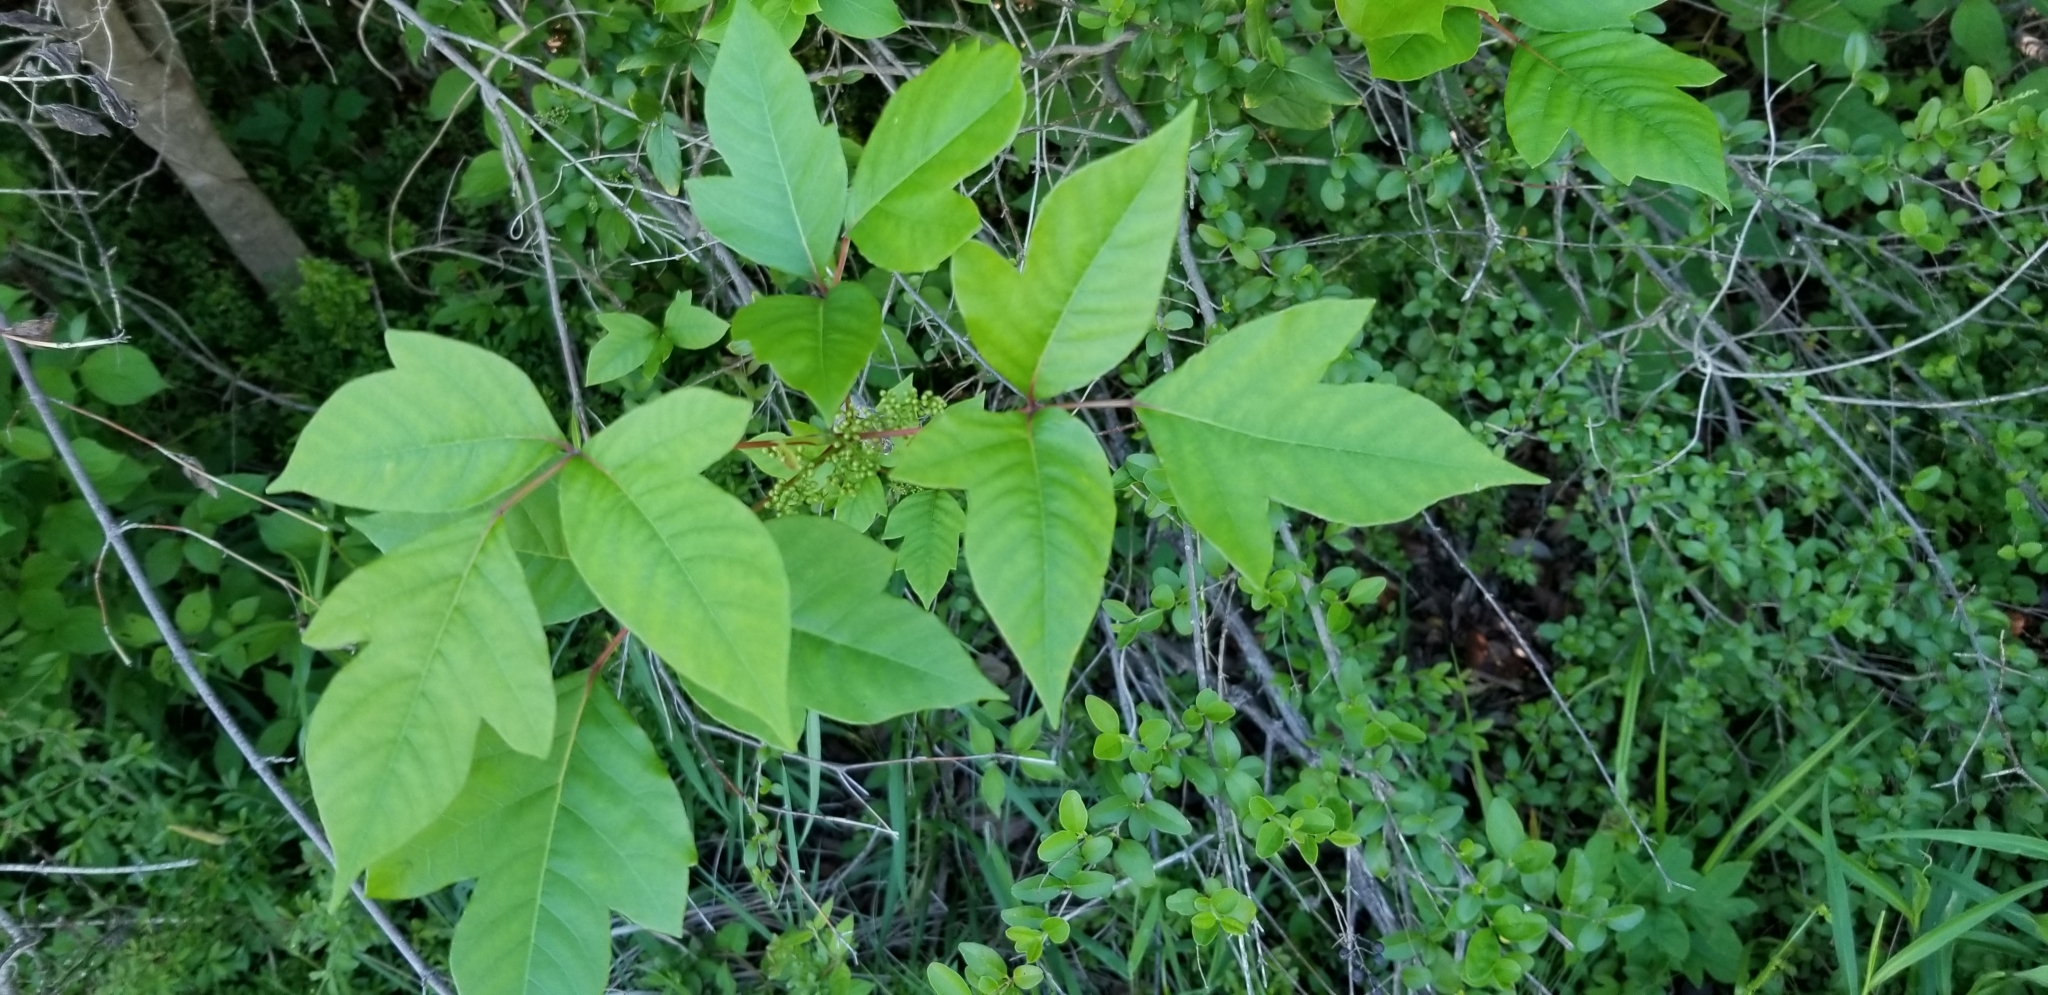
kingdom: Plantae
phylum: Tracheophyta
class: Magnoliopsida
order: Sapindales
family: Anacardiaceae
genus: Toxicodendron
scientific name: Toxicodendron radicans
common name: Poison ivy
